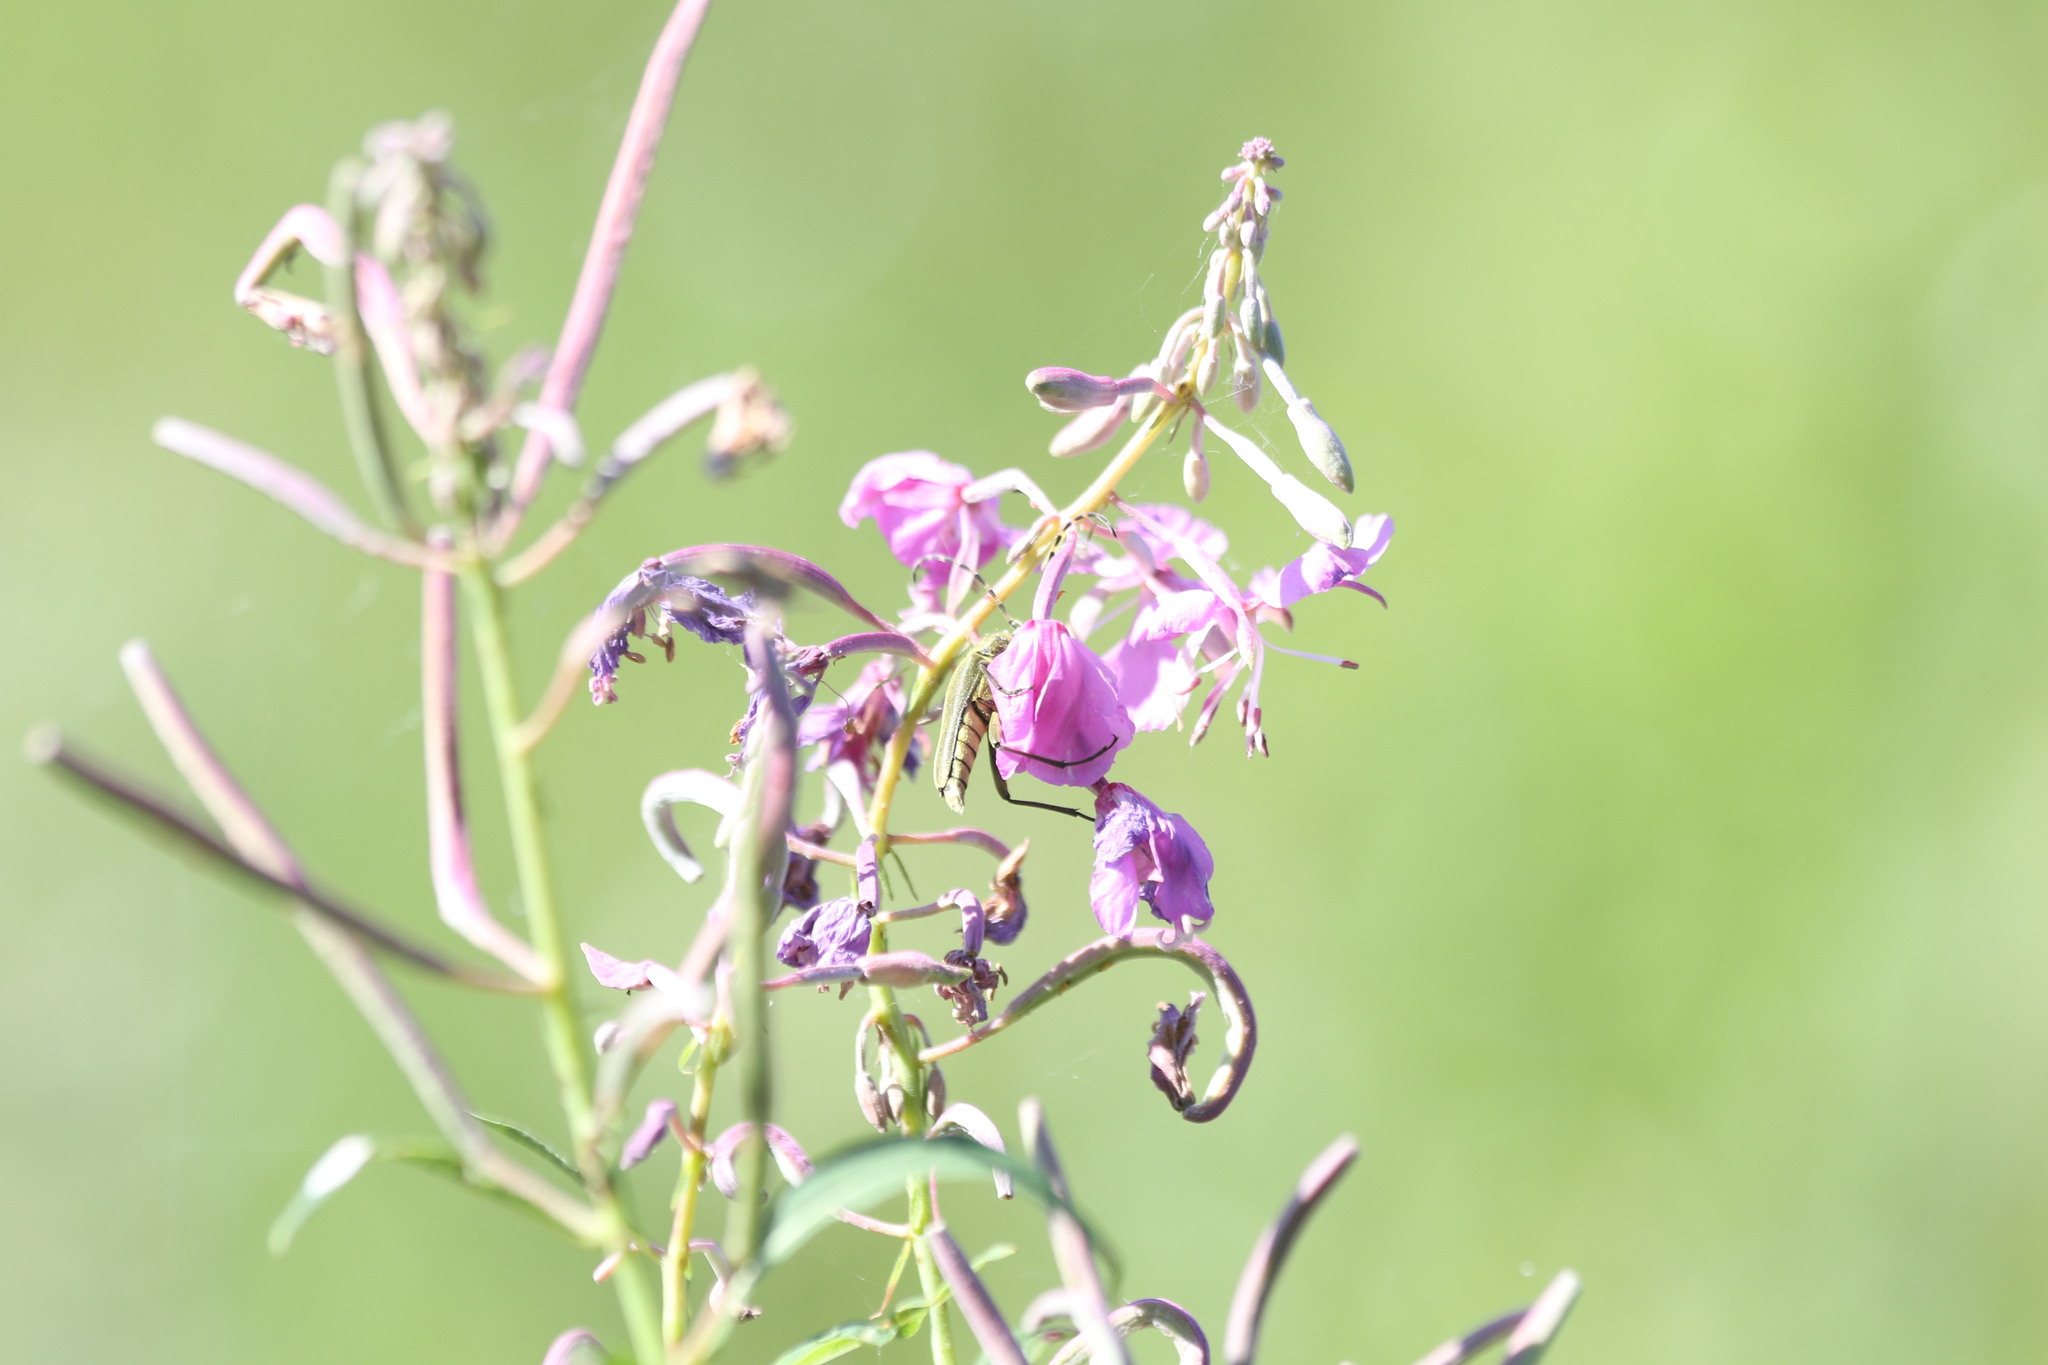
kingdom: Animalia
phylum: Arthropoda
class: Insecta
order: Coleoptera
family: Cerambycidae
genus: Lepturobosca
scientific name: Lepturobosca virens
